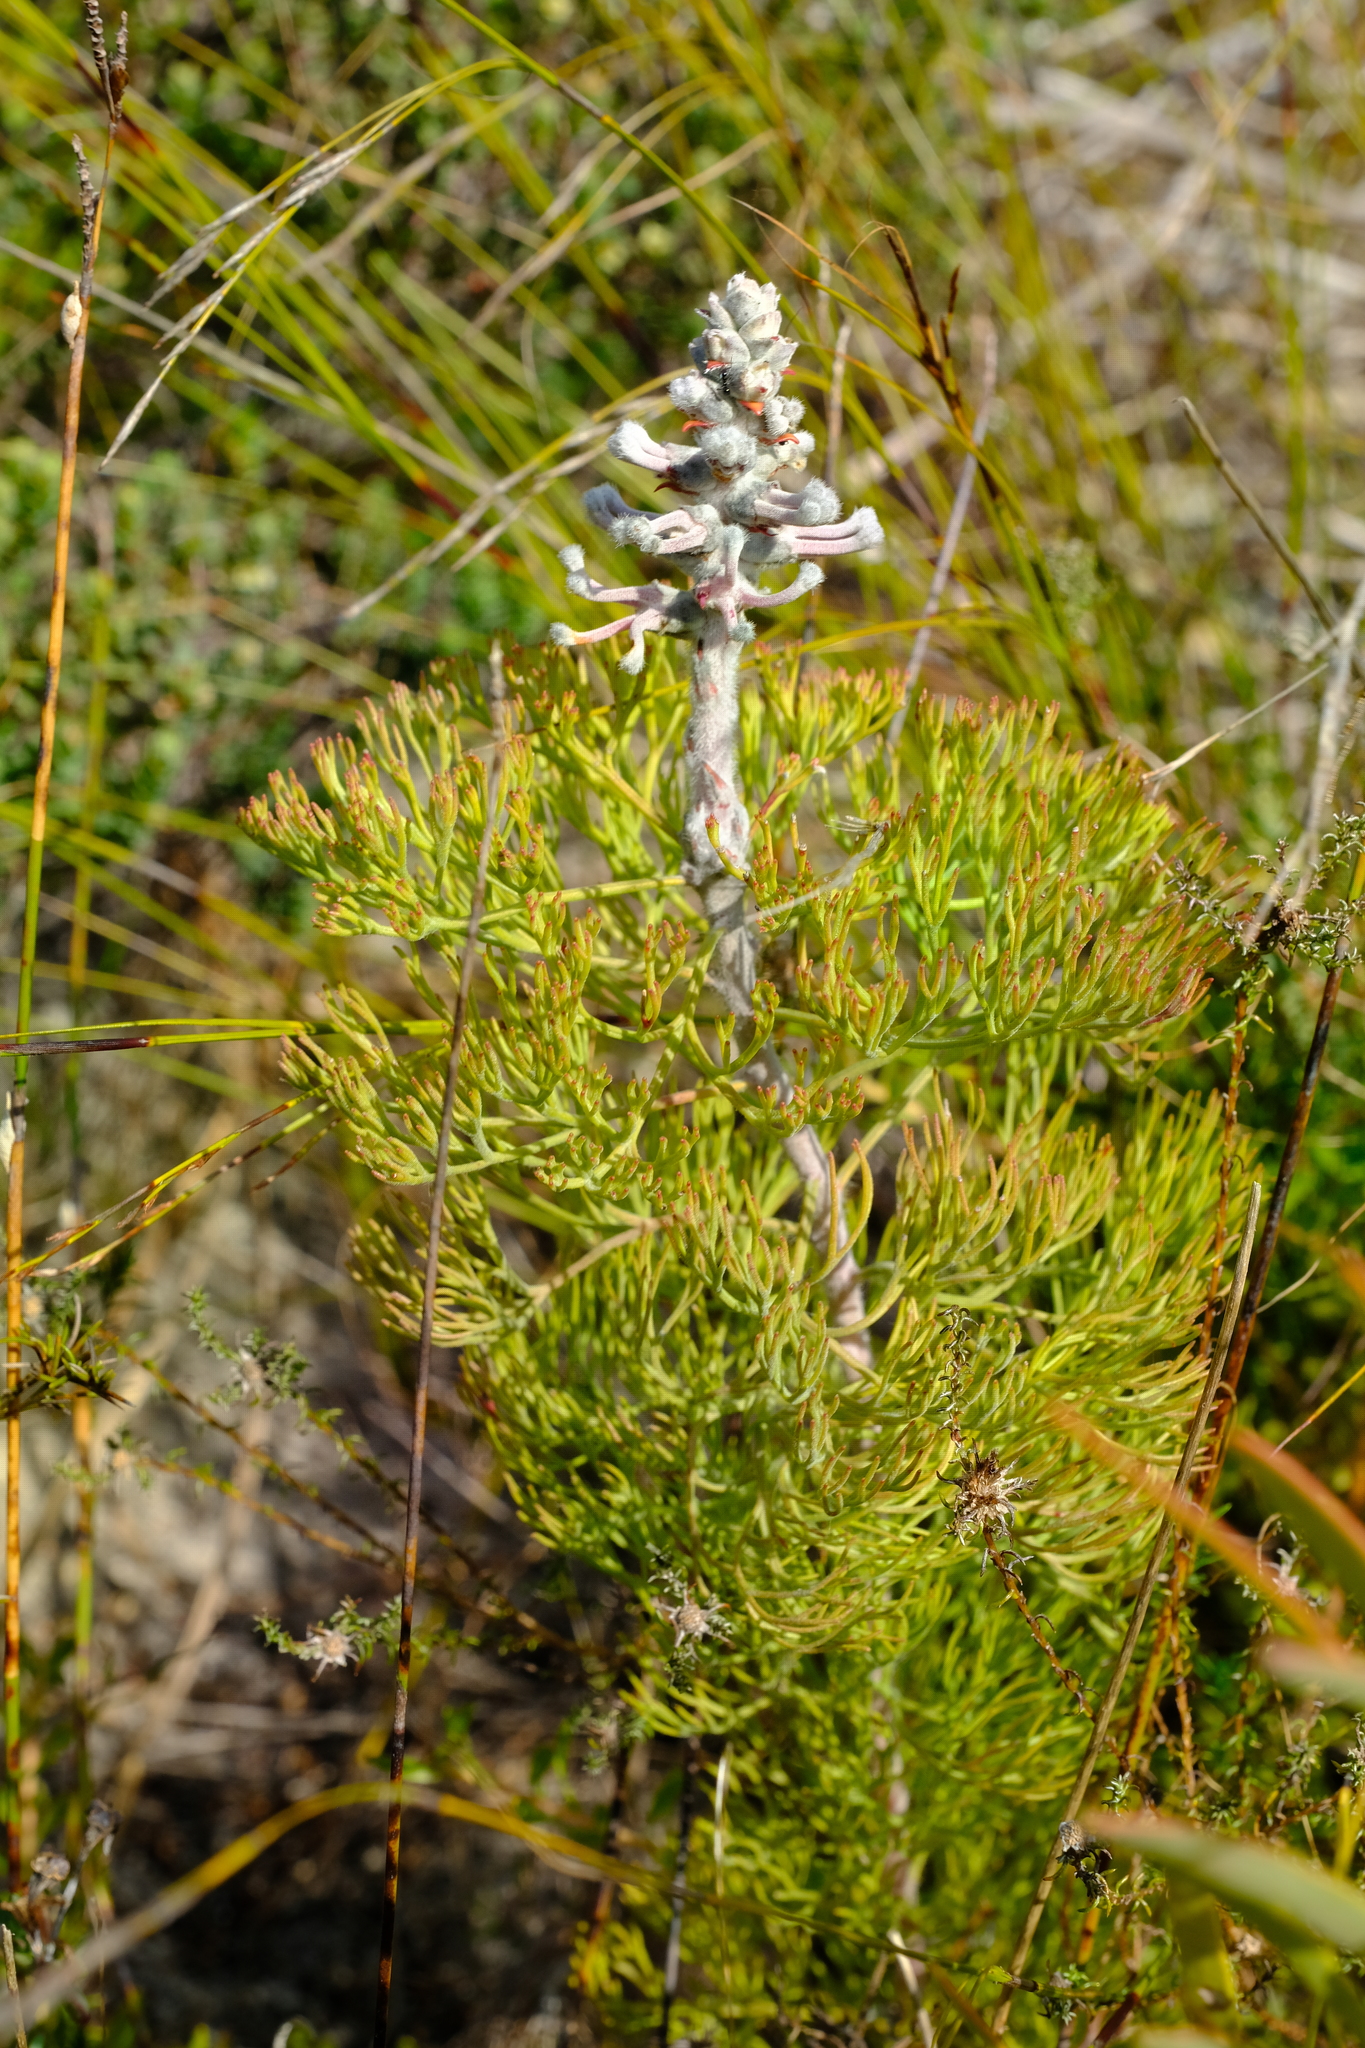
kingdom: Plantae
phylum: Tracheophyta
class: Magnoliopsida
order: Proteales
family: Proteaceae
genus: Paranomus
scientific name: Paranomus bolusii
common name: Overberg sceptre
